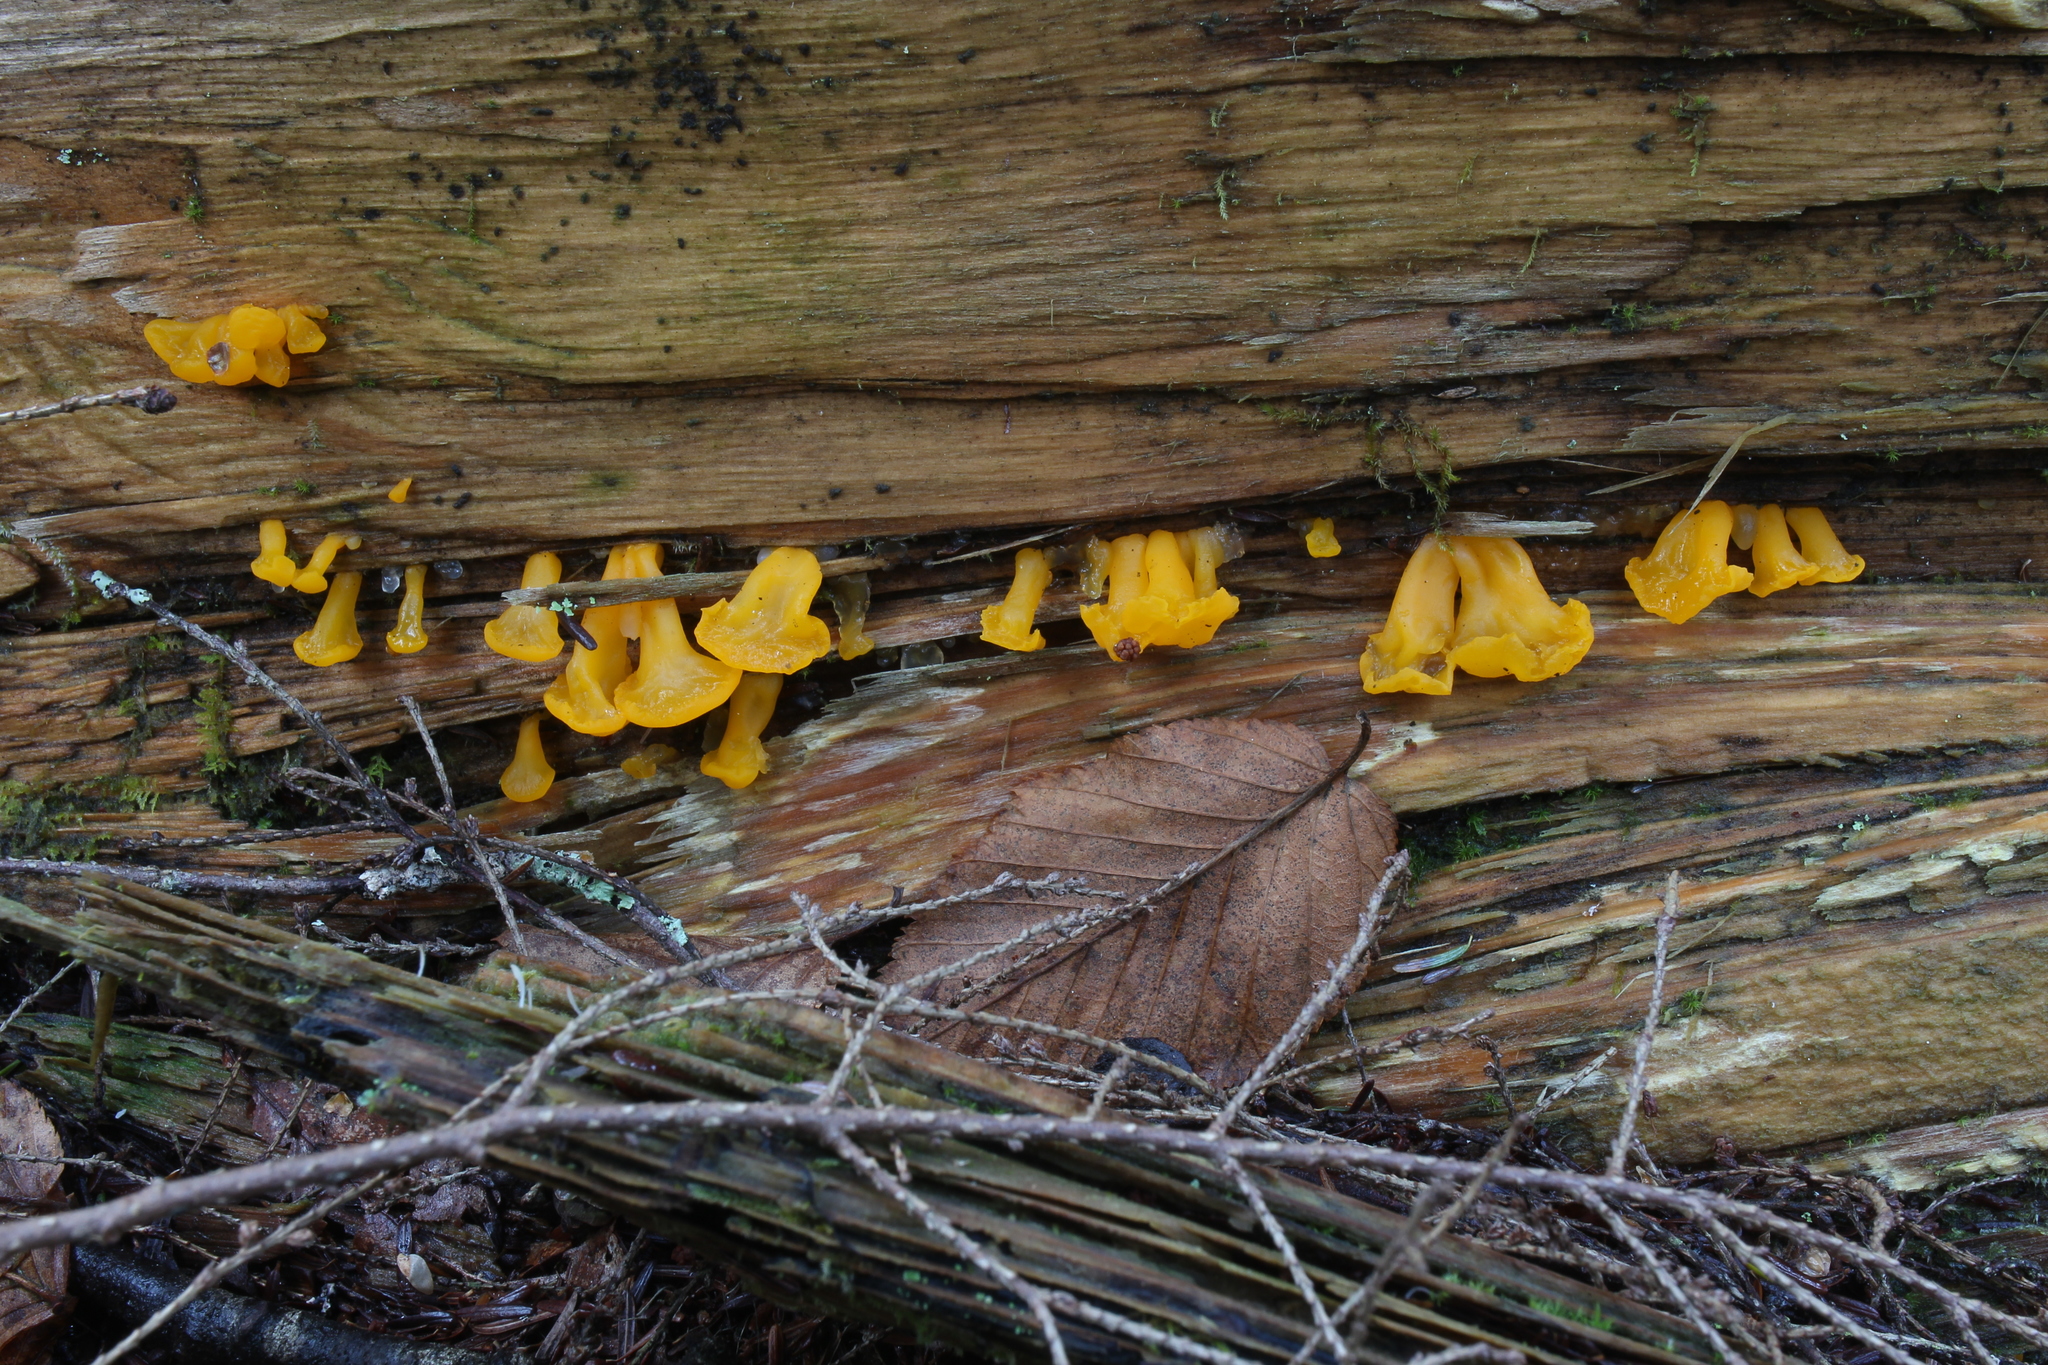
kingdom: Fungi
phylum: Basidiomycota
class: Dacrymycetes
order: Dacrymycetales
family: Dacrymycetaceae
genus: Dacrymyces
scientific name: Dacrymyces chrysospermus
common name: Orange jelly spot
